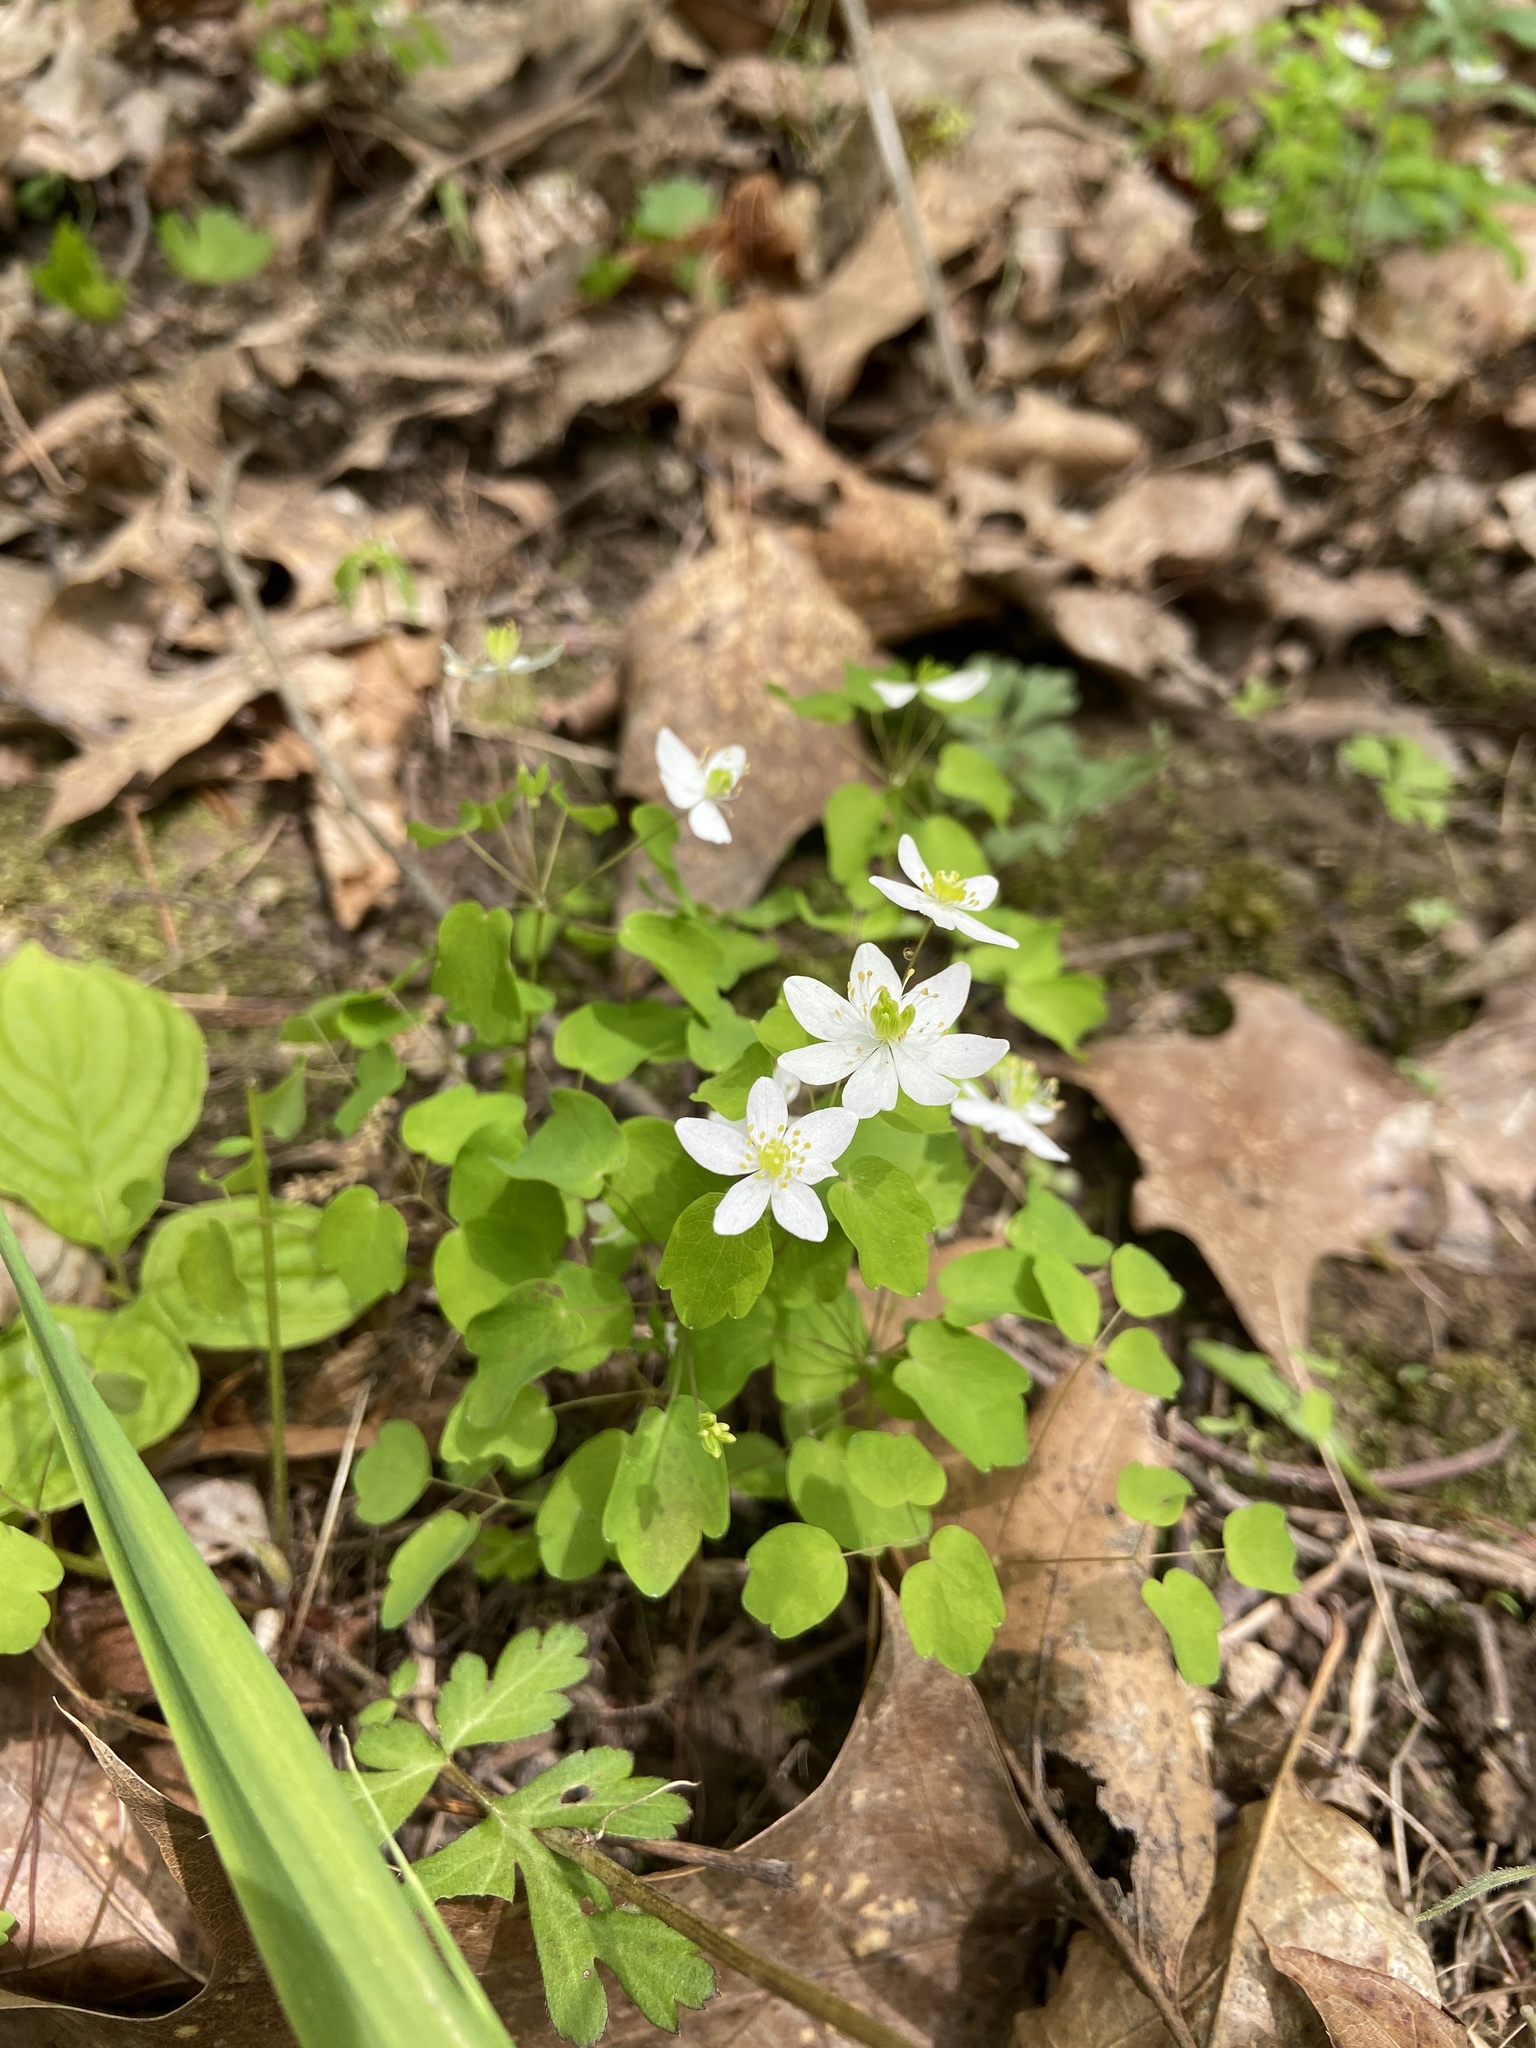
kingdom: Plantae
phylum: Tracheophyta
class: Magnoliopsida
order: Ranunculales
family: Ranunculaceae
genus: Thalictrum
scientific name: Thalictrum thalictroides
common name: Rue-anemone
